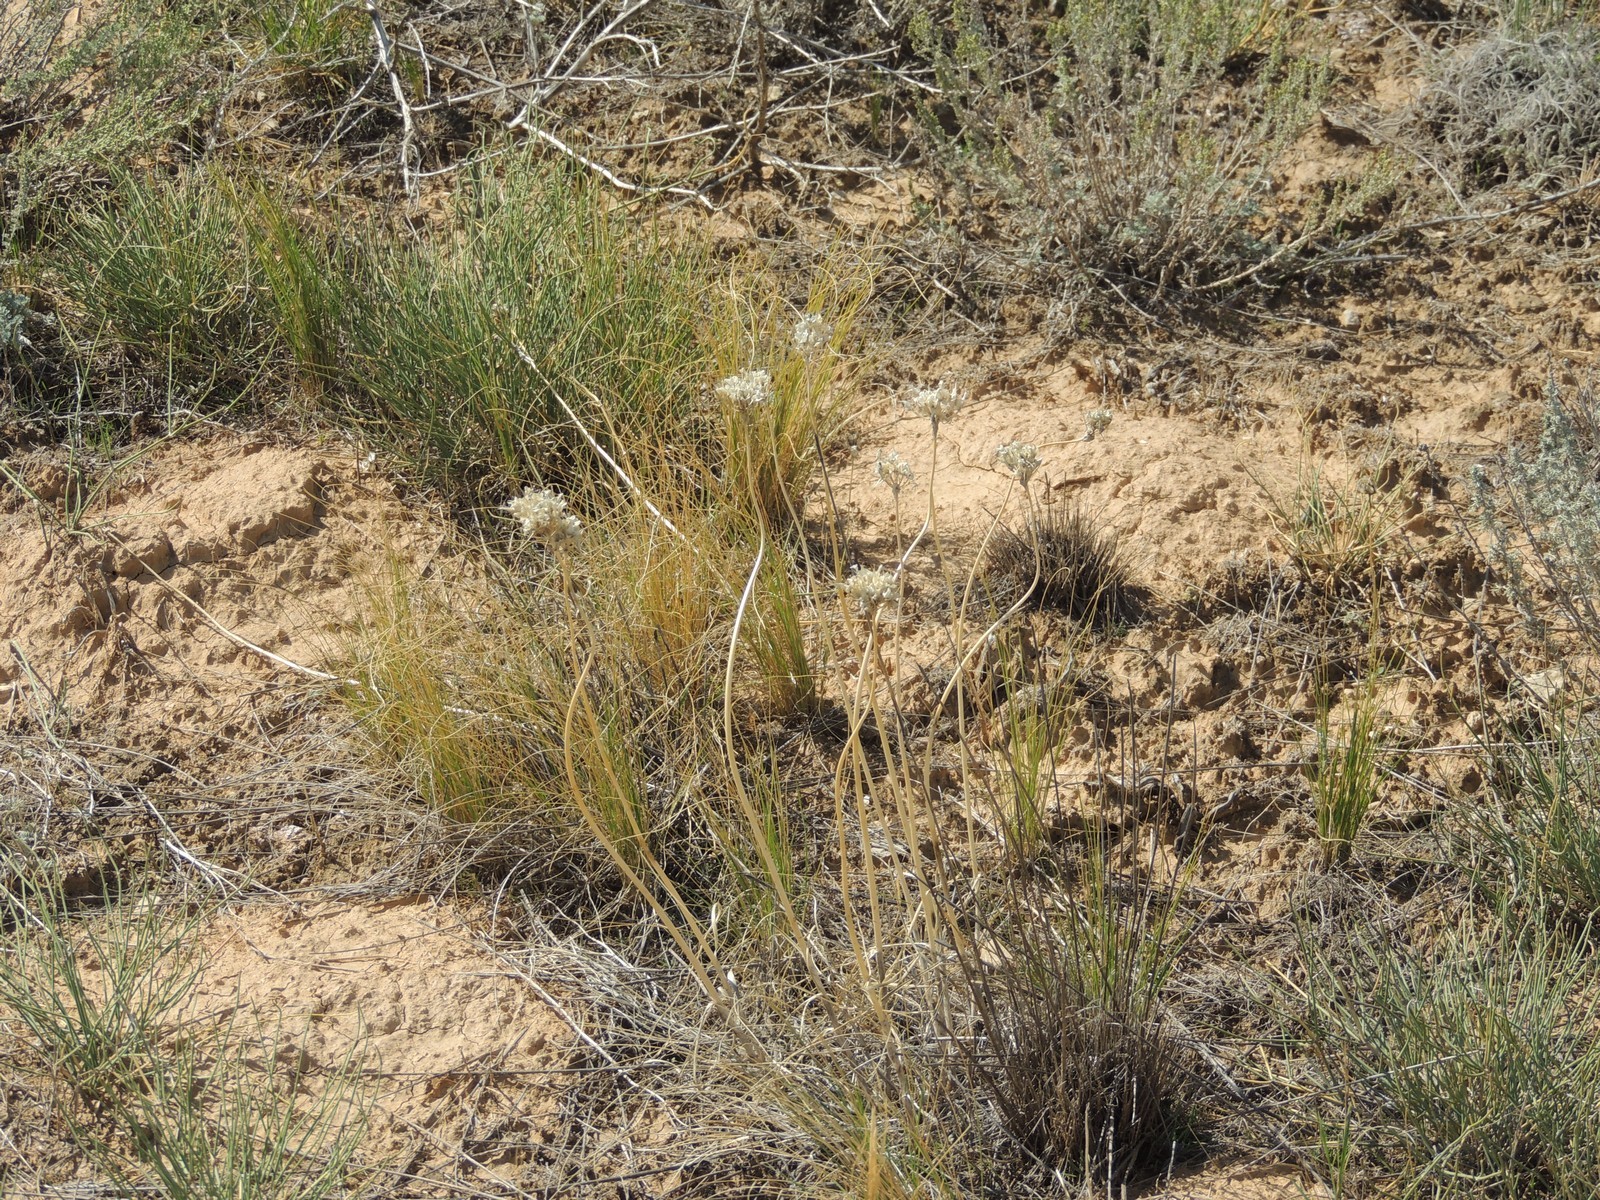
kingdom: Plantae
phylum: Tracheophyta
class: Liliopsida
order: Asparagales
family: Amaryllidaceae
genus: Allium
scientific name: Allium inderiense
